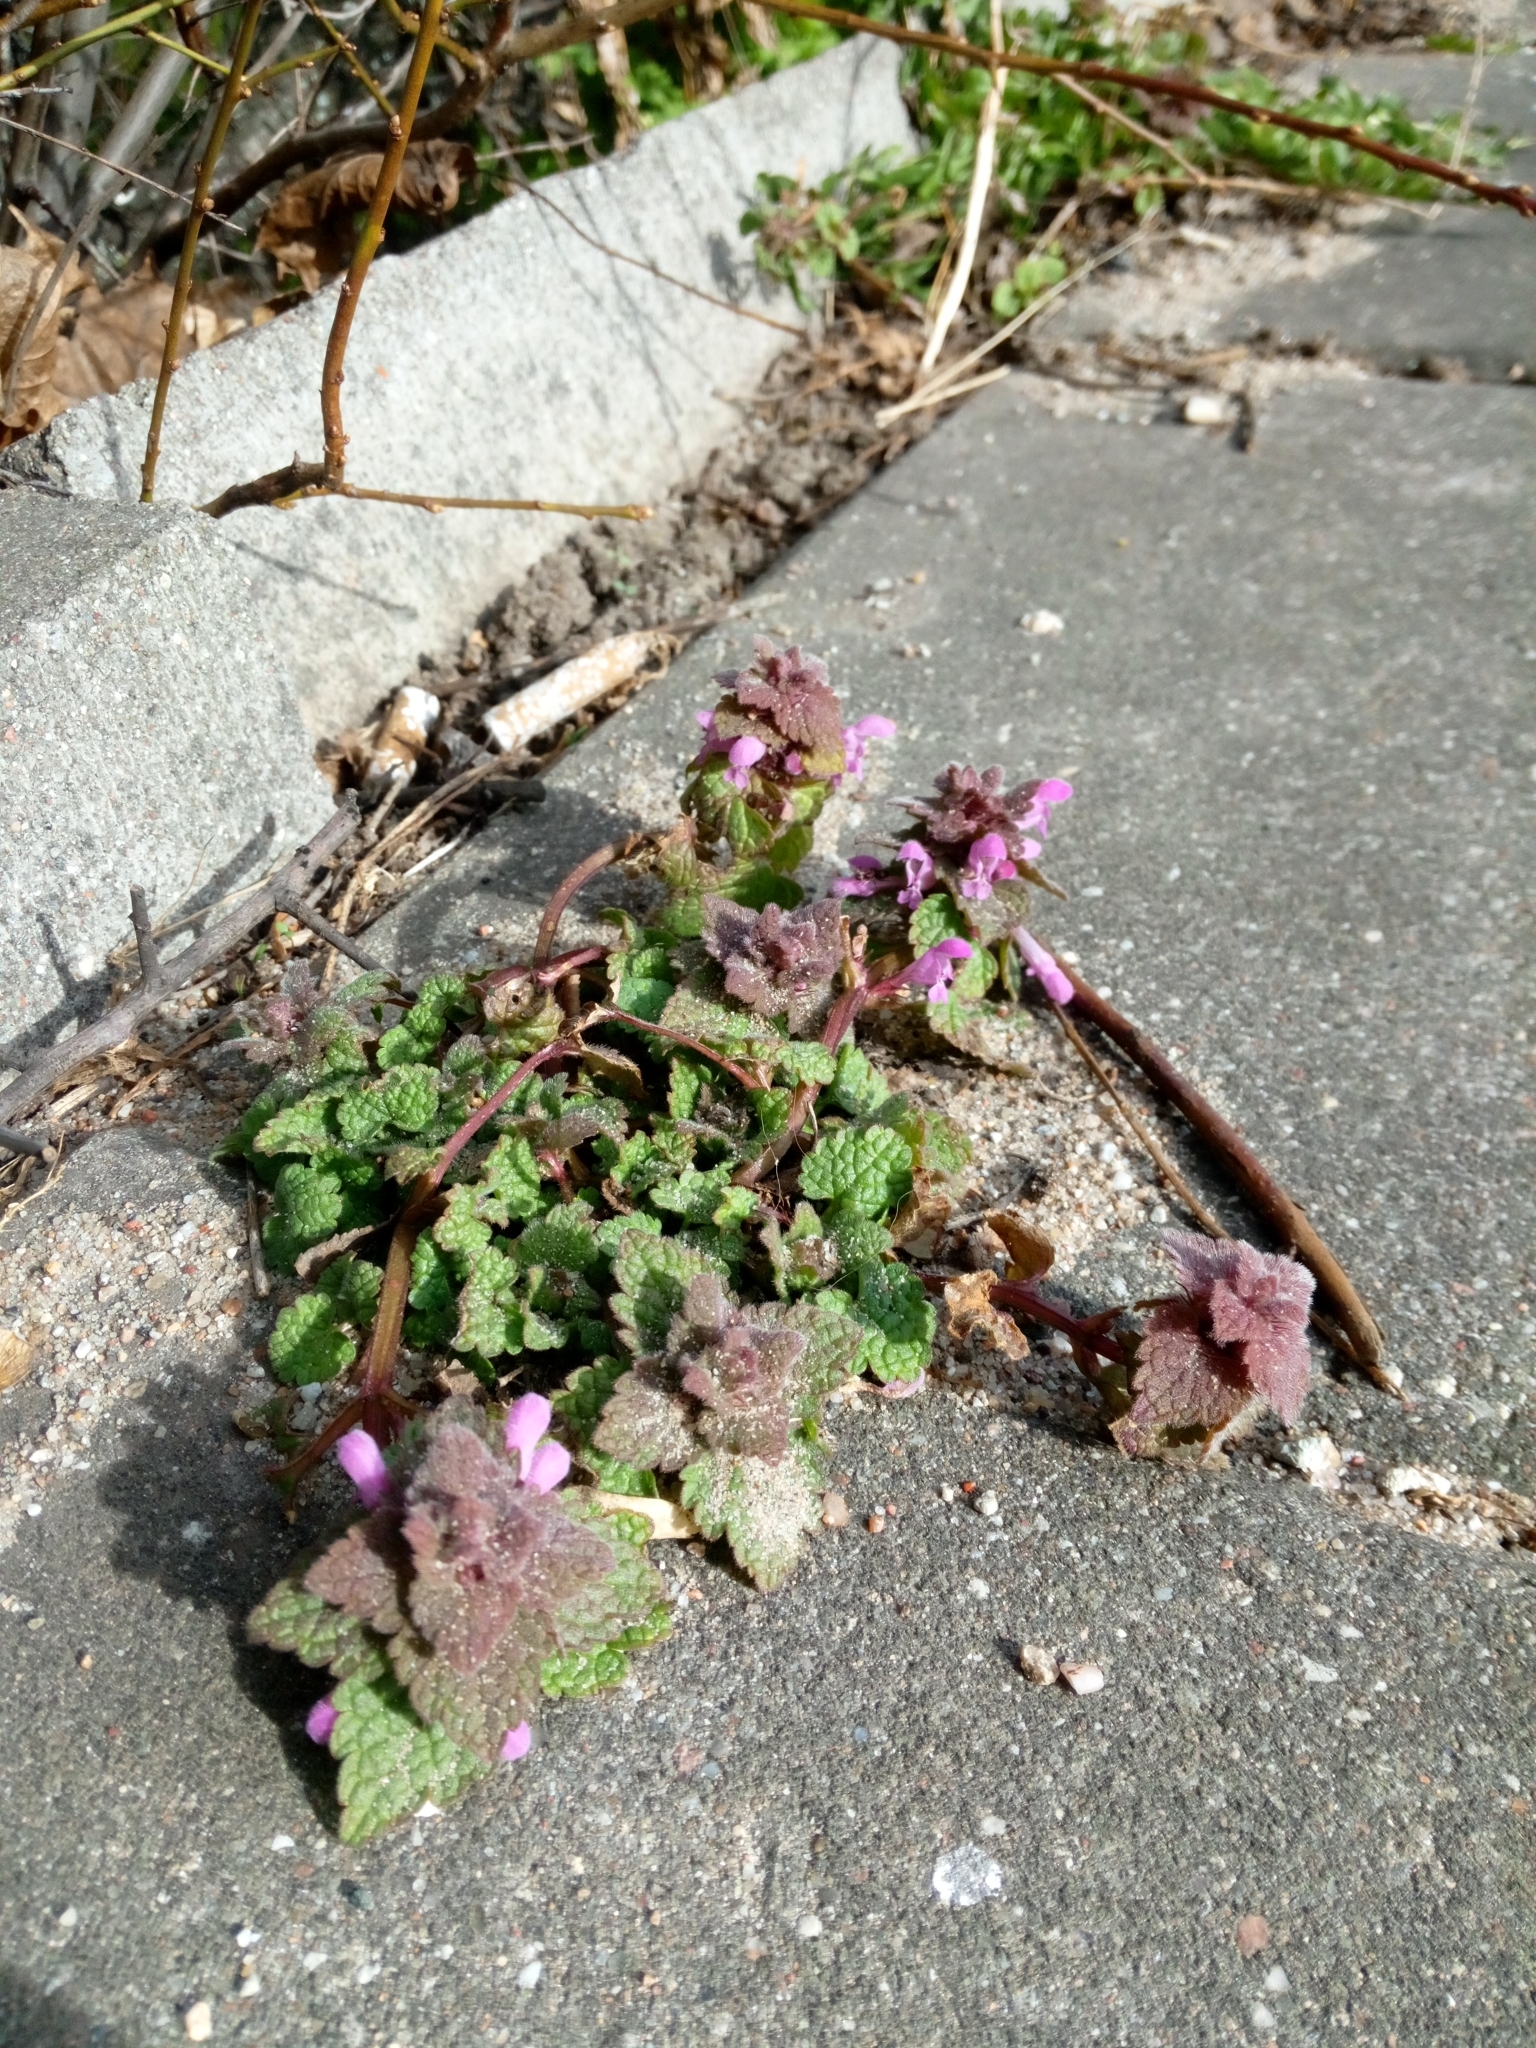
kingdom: Plantae
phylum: Tracheophyta
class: Magnoliopsida
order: Lamiales
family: Lamiaceae
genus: Lamium
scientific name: Lamium purpureum
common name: Red dead-nettle
